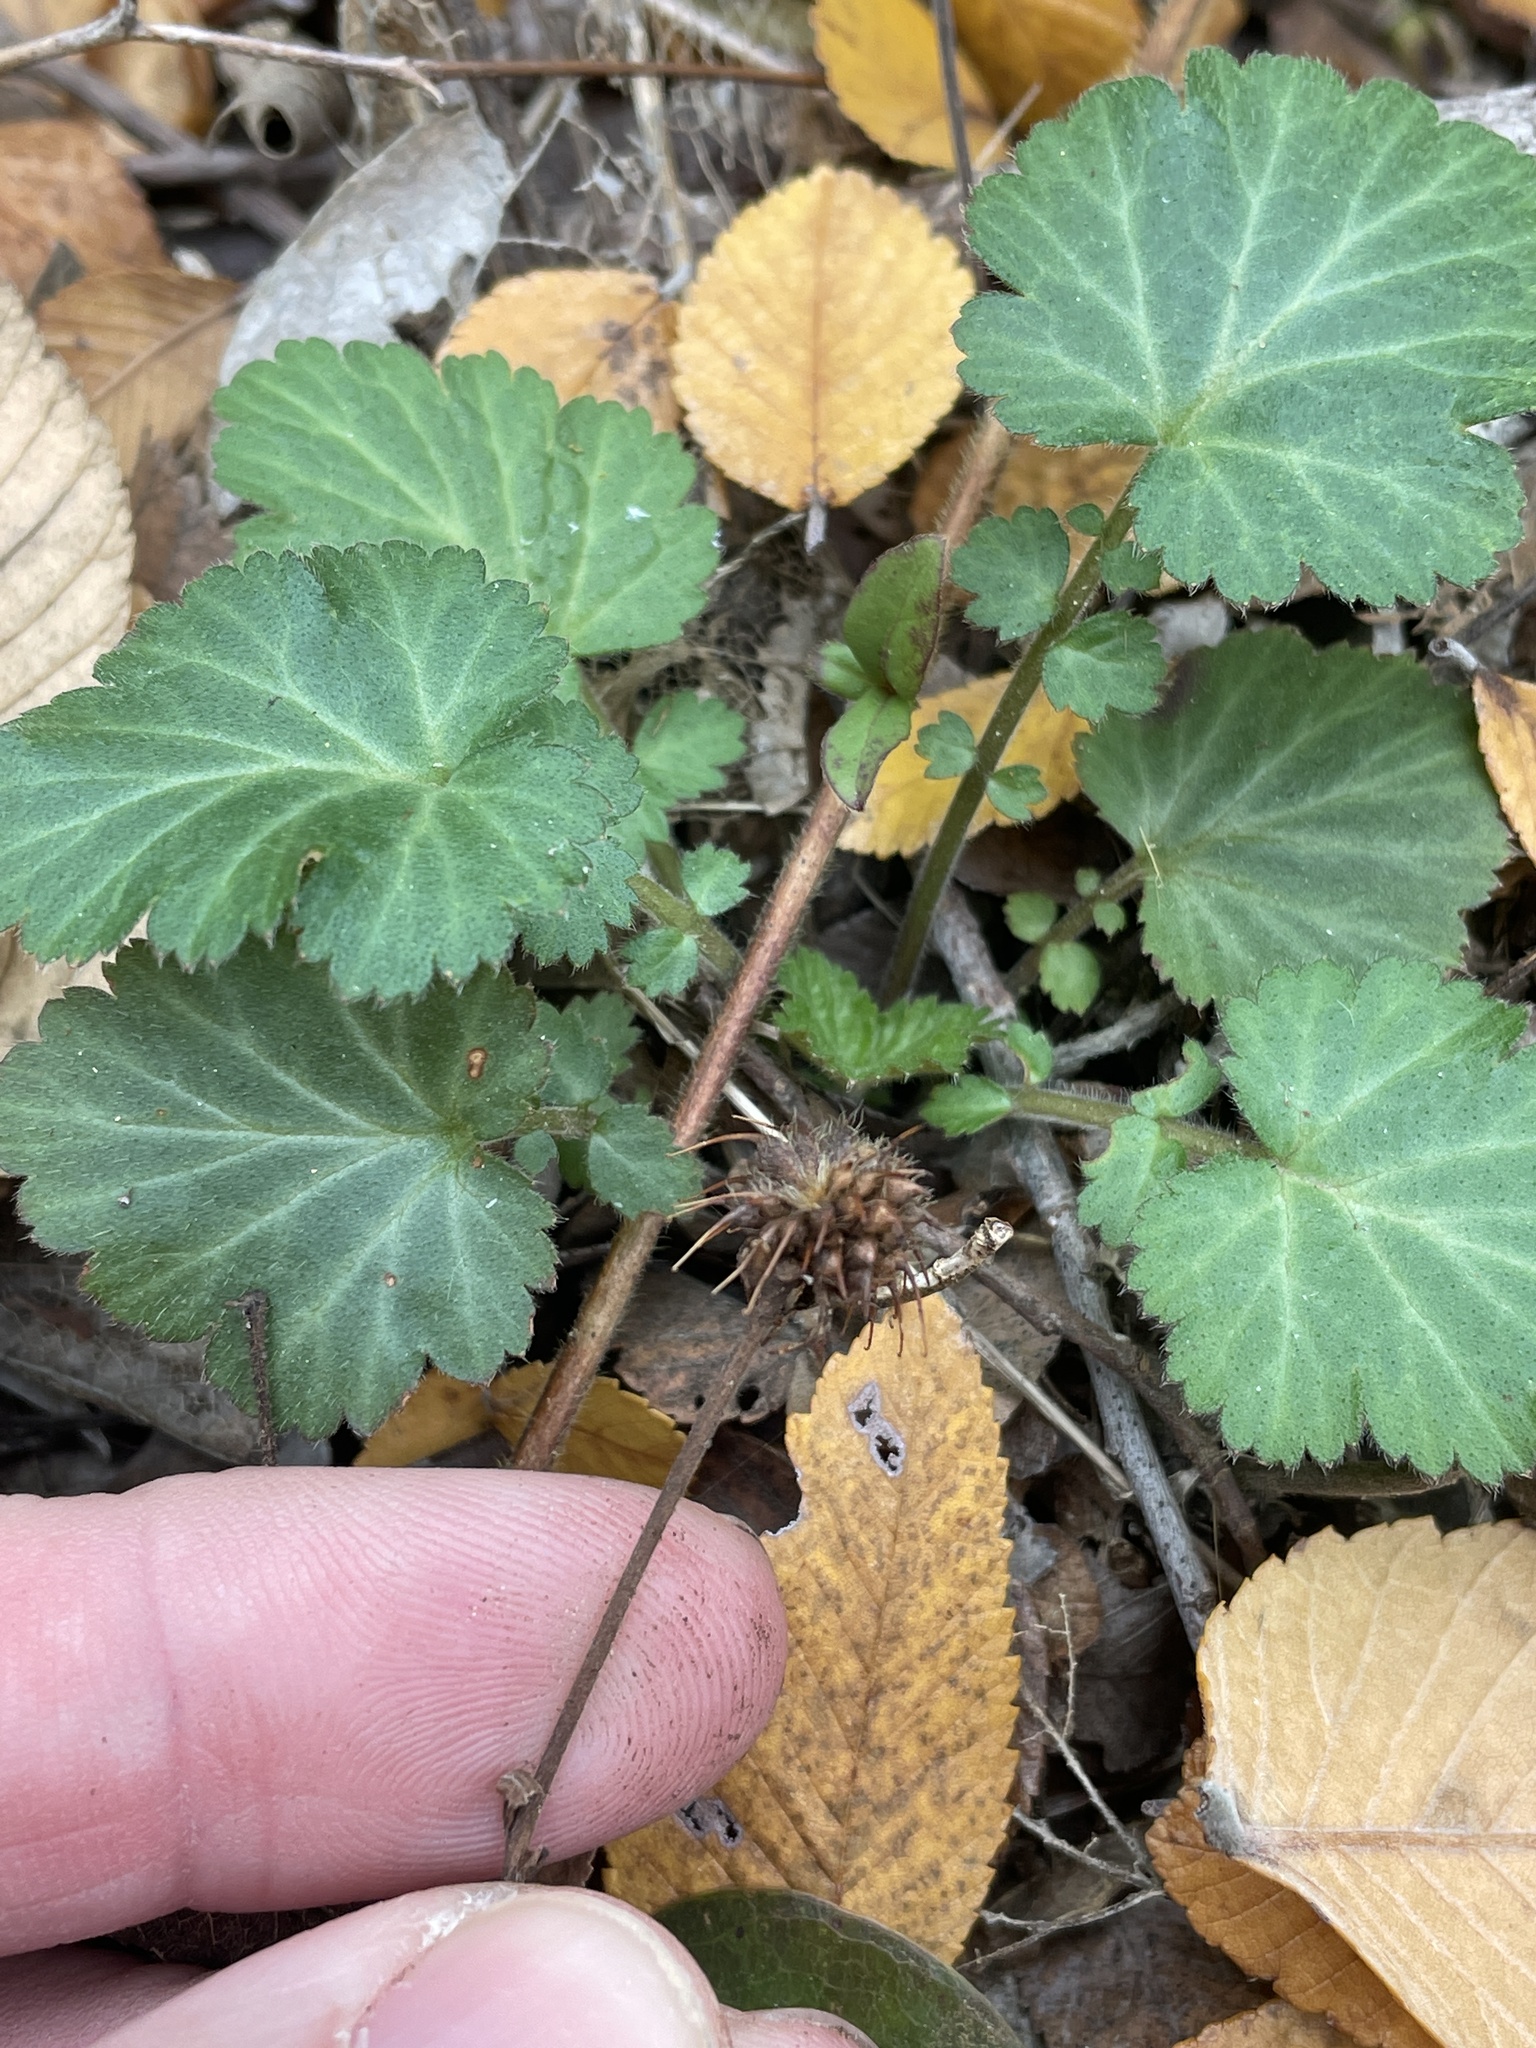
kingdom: Plantae
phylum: Tracheophyta
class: Magnoliopsida
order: Rosales
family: Rosaceae
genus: Geum
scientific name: Geum canadense
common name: White avens
